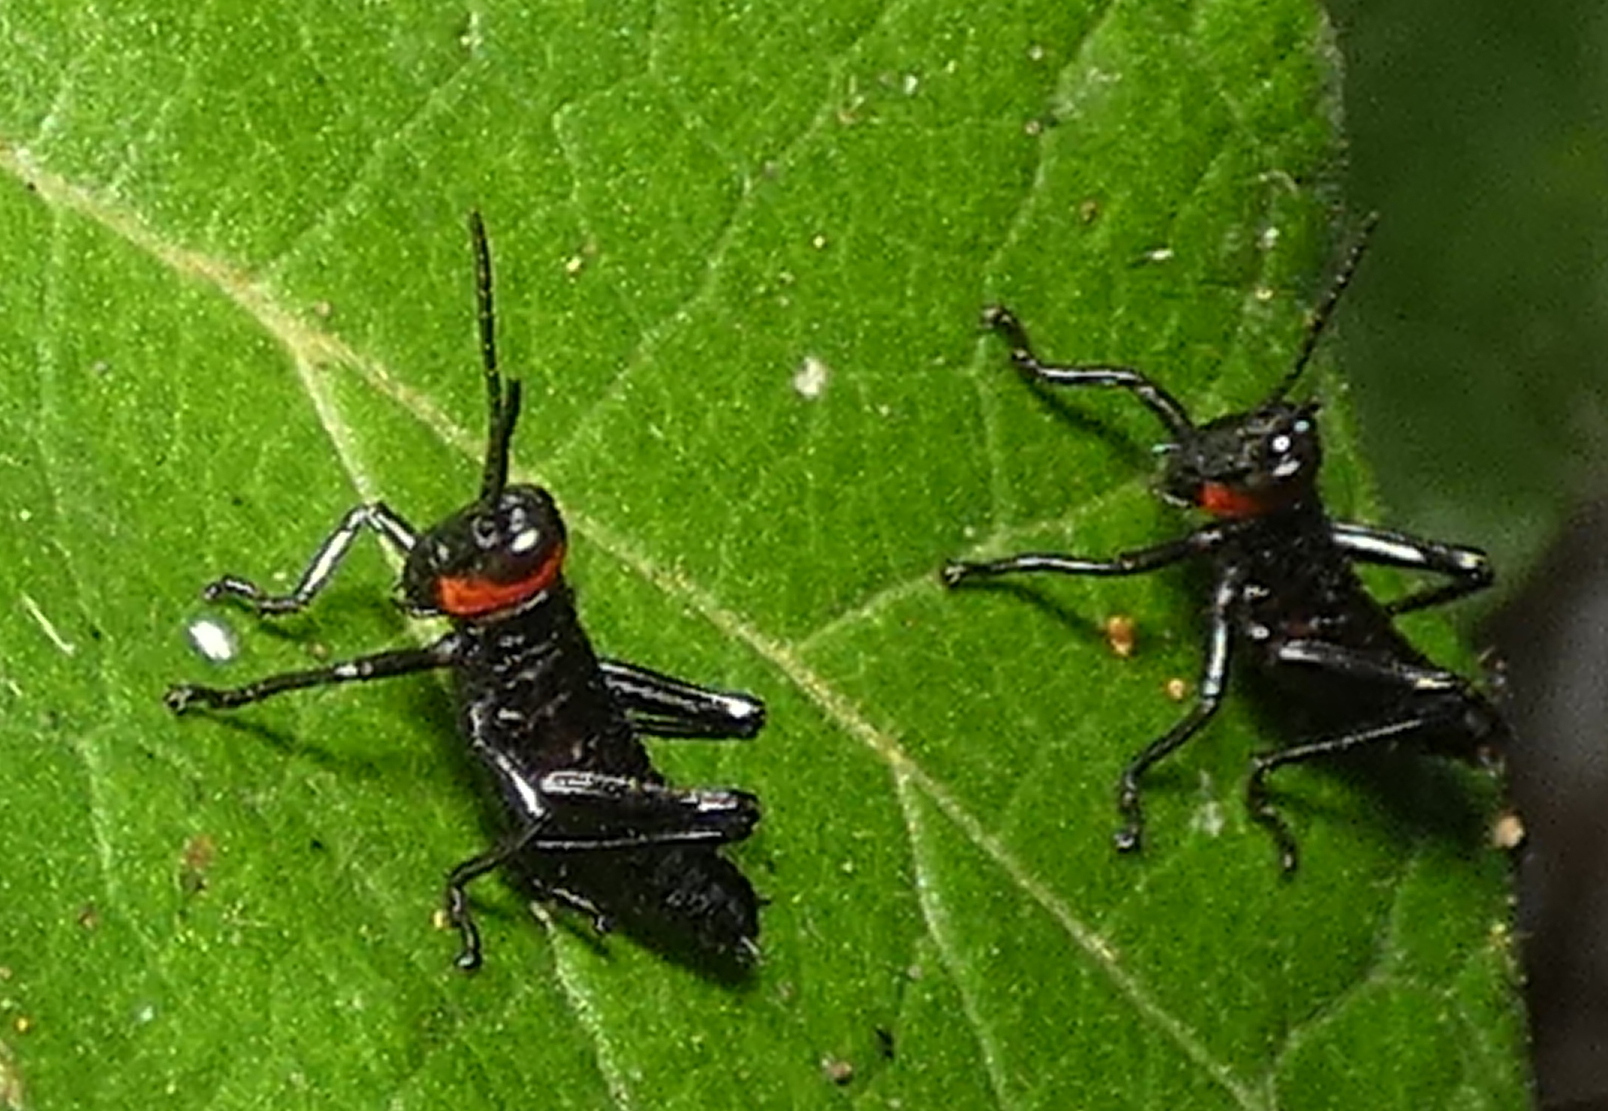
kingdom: Animalia
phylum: Arthropoda
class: Insecta
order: Orthoptera
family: Romaleidae
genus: Chromacris
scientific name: Chromacris speciosa
